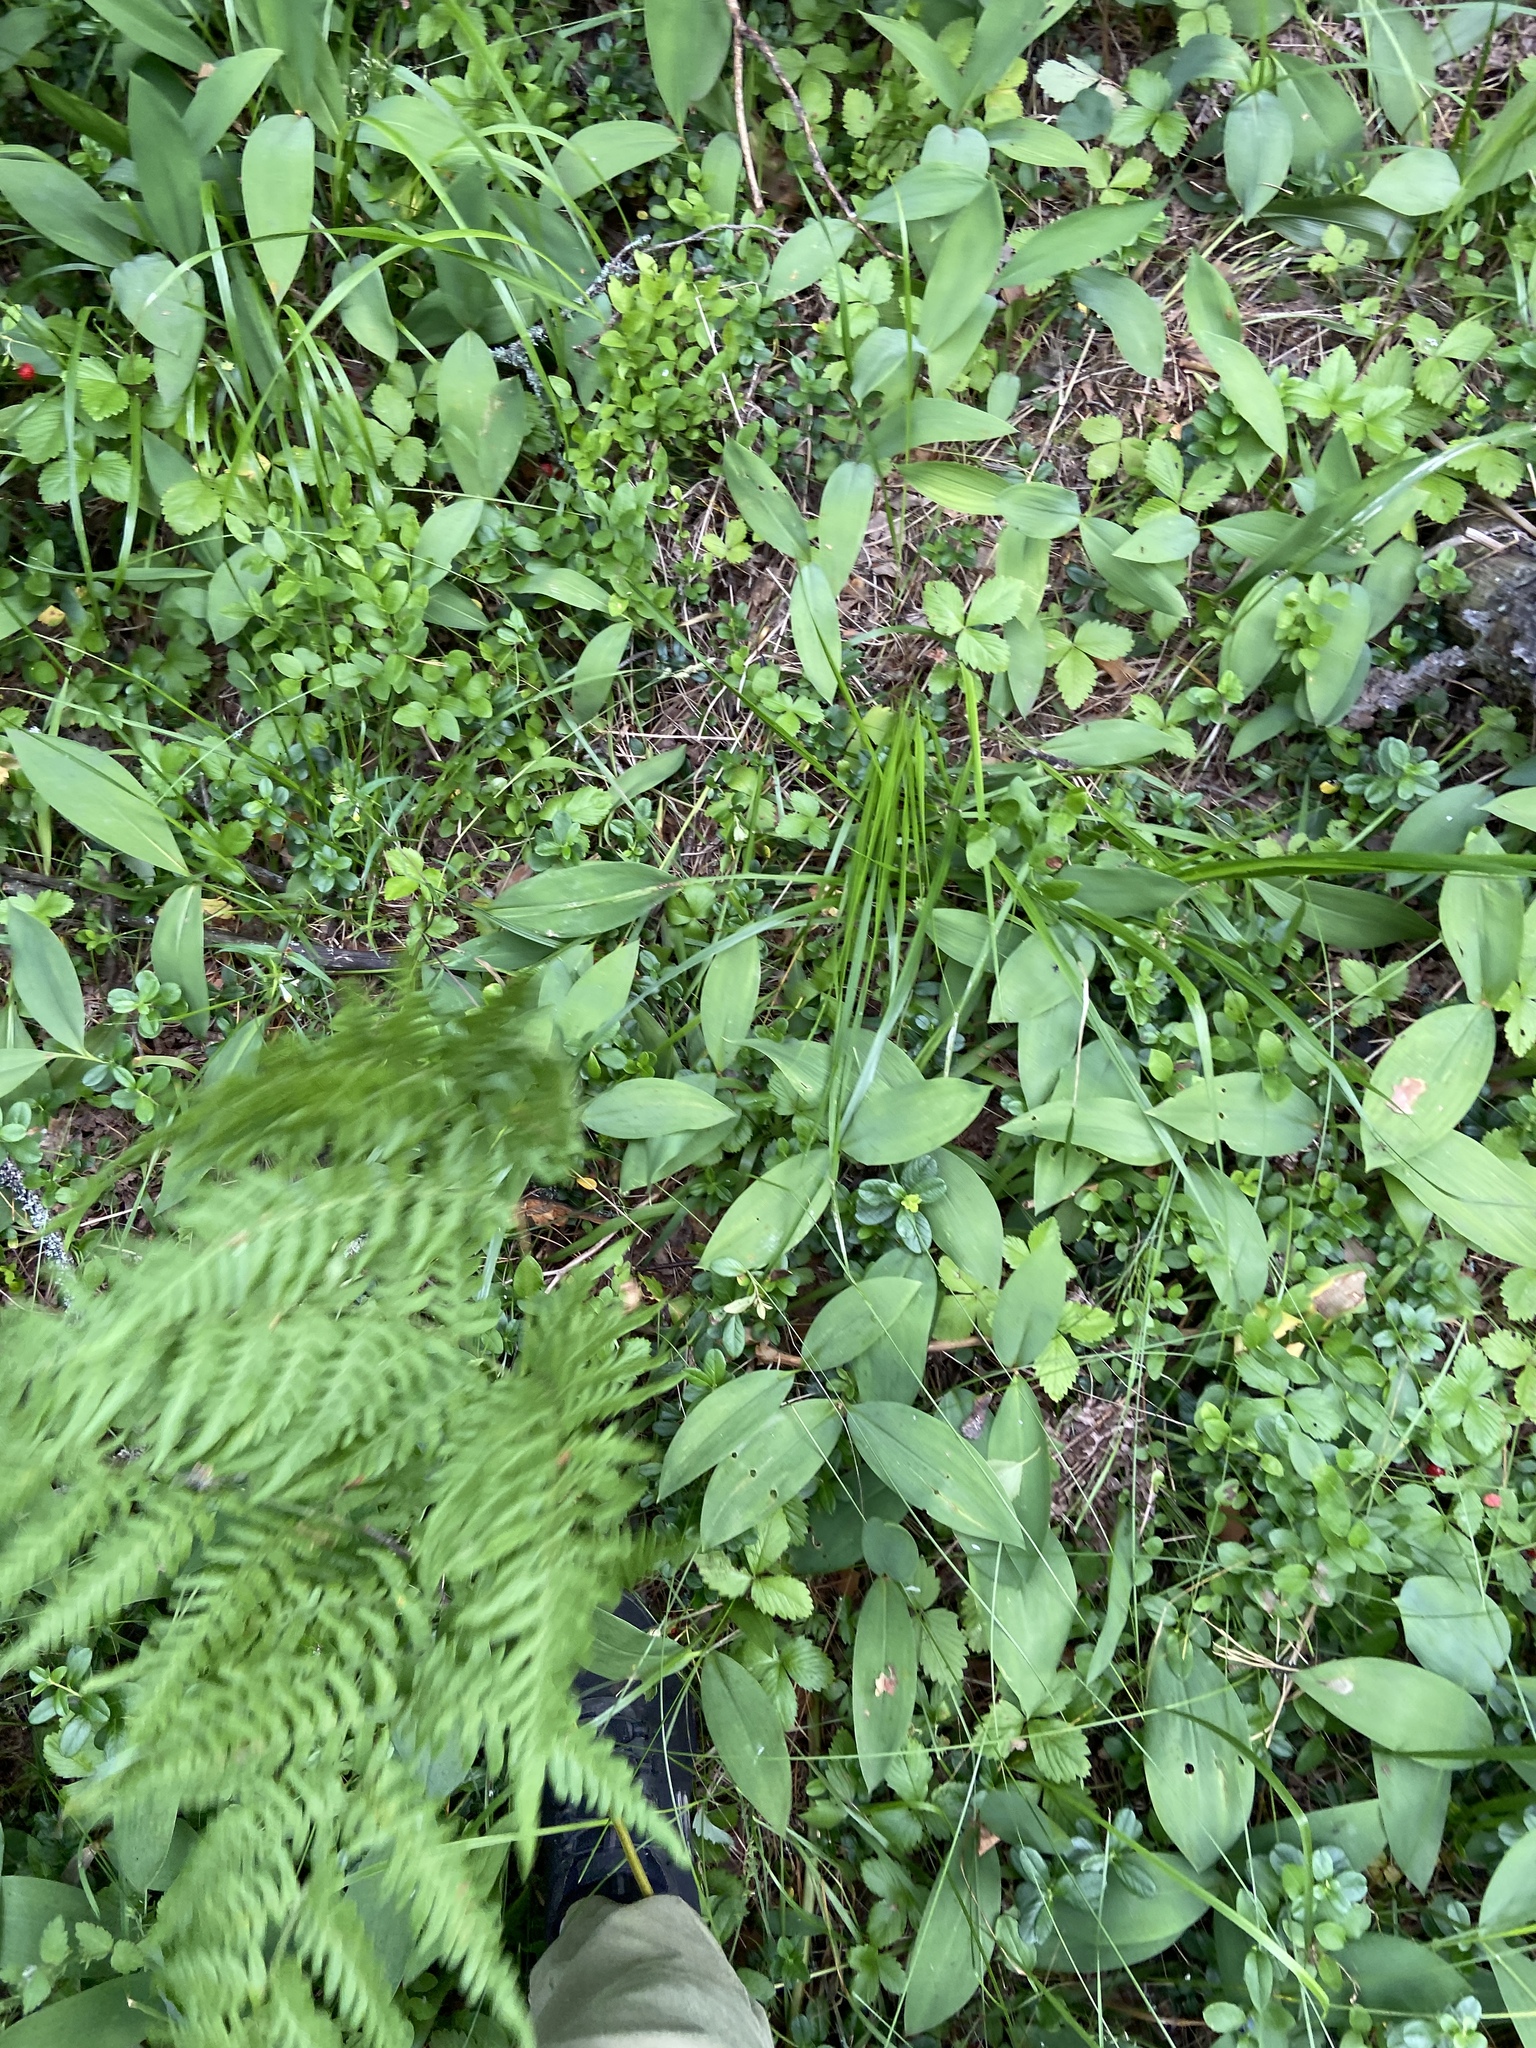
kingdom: Plantae
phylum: Tracheophyta
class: Liliopsida
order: Asparagales
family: Asparagaceae
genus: Convallaria
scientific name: Convallaria majalis
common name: Lily-of-the-valley
